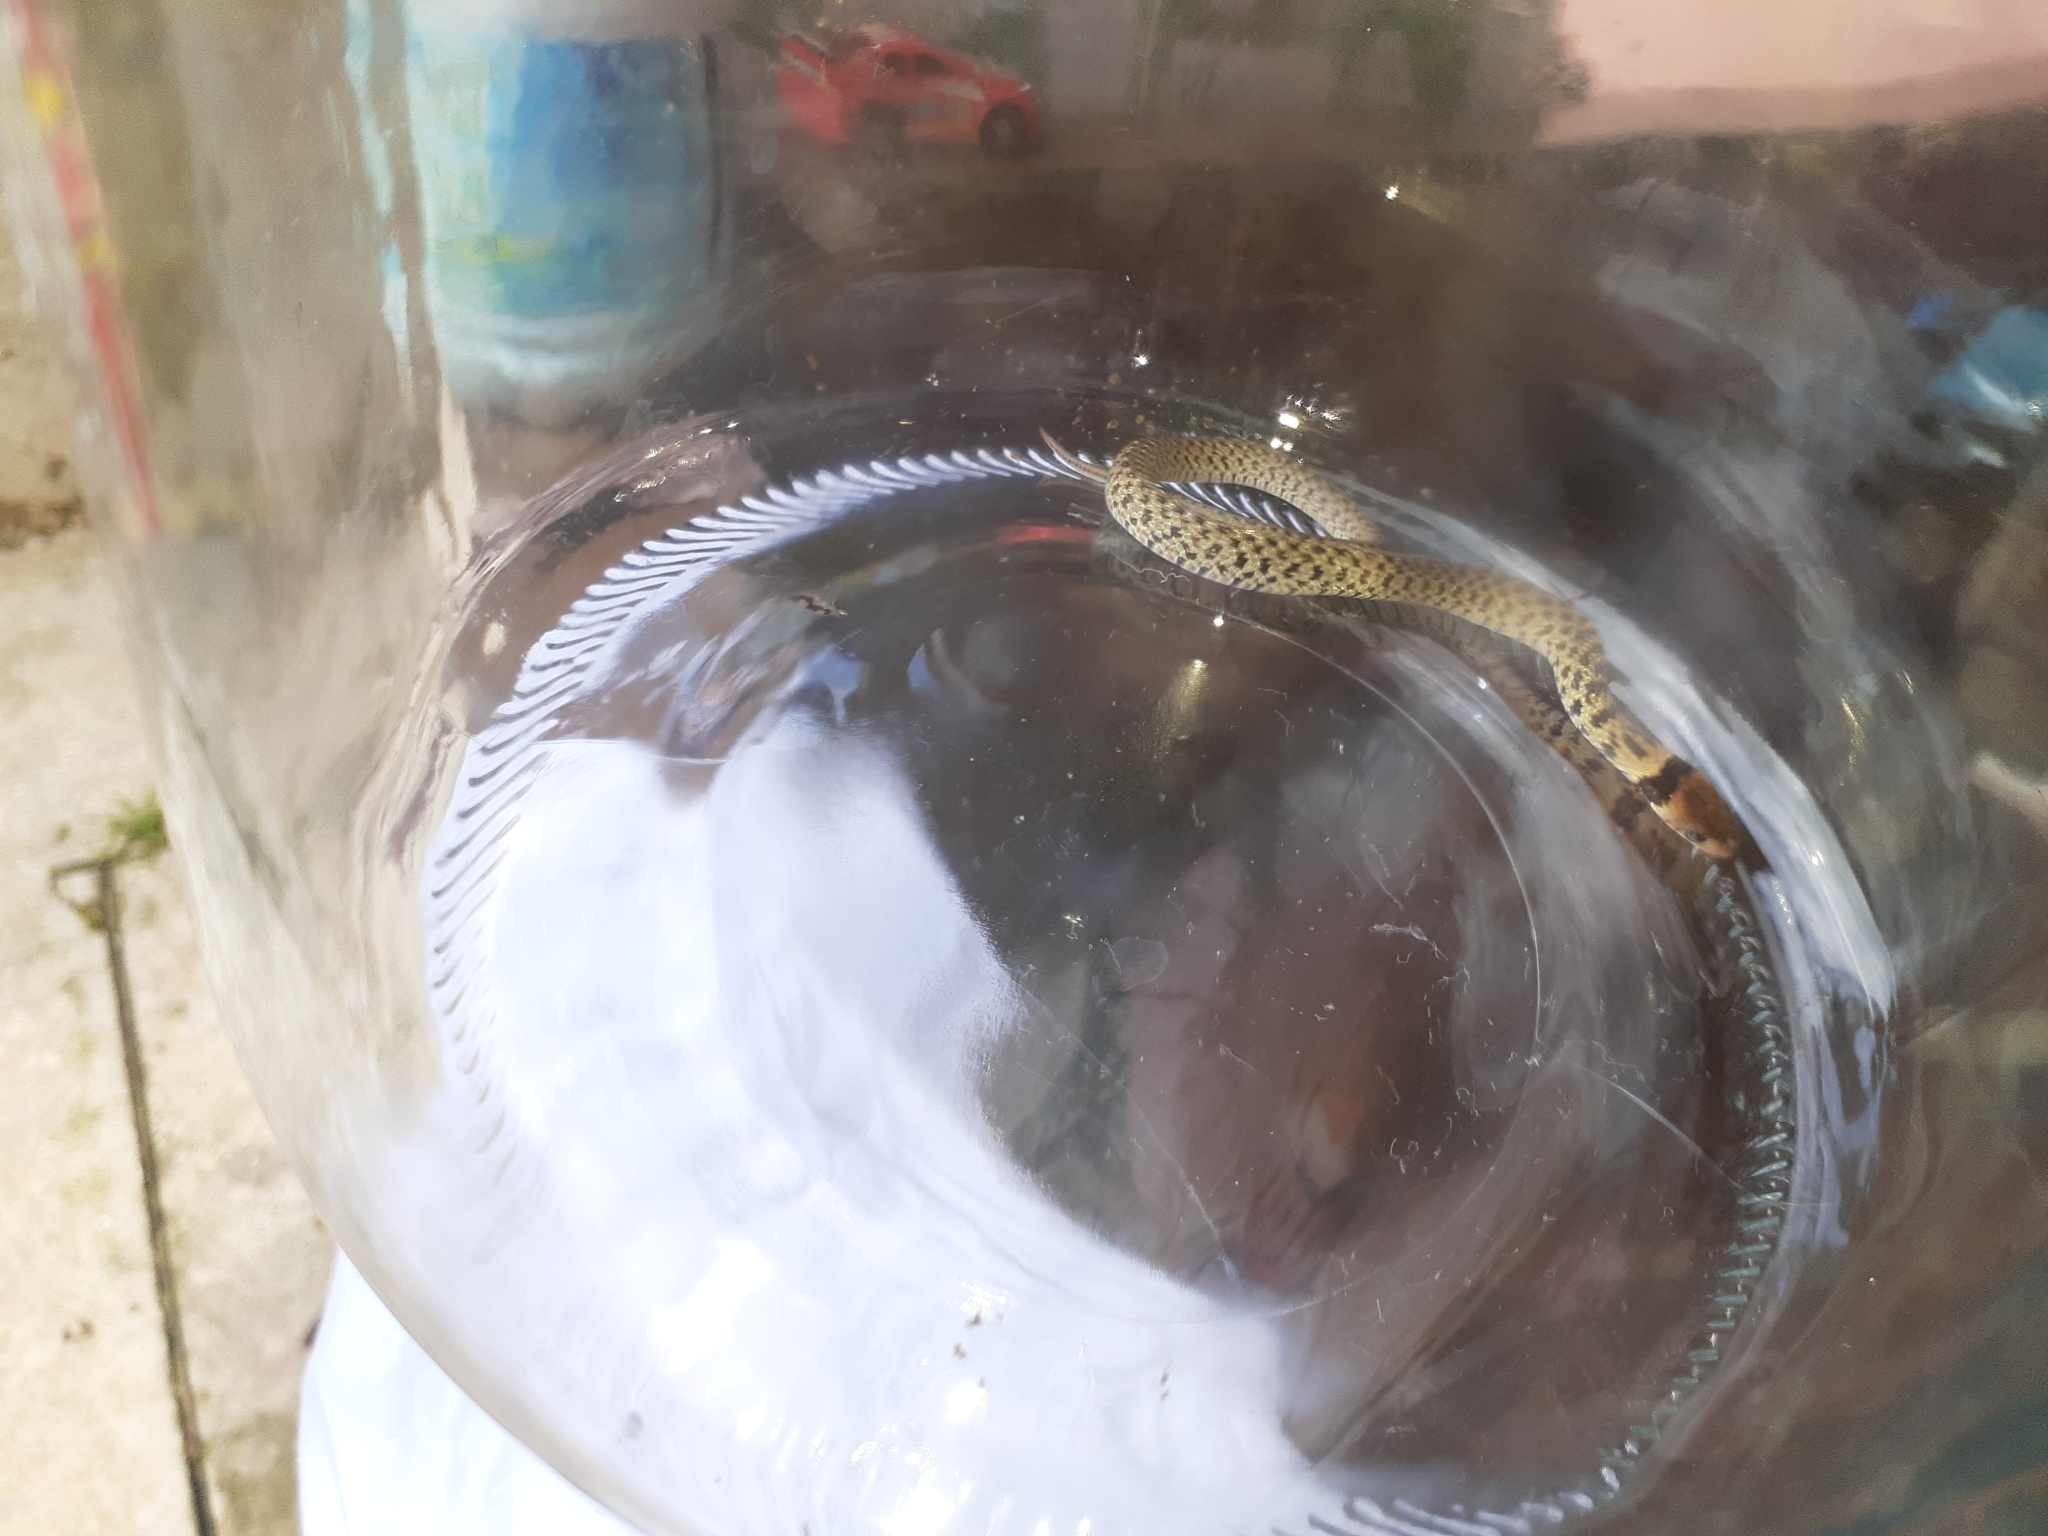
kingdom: Animalia
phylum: Chordata
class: Squamata
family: Colubridae
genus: Erythrolamprus
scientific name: Erythrolamprus poecilogyrus
